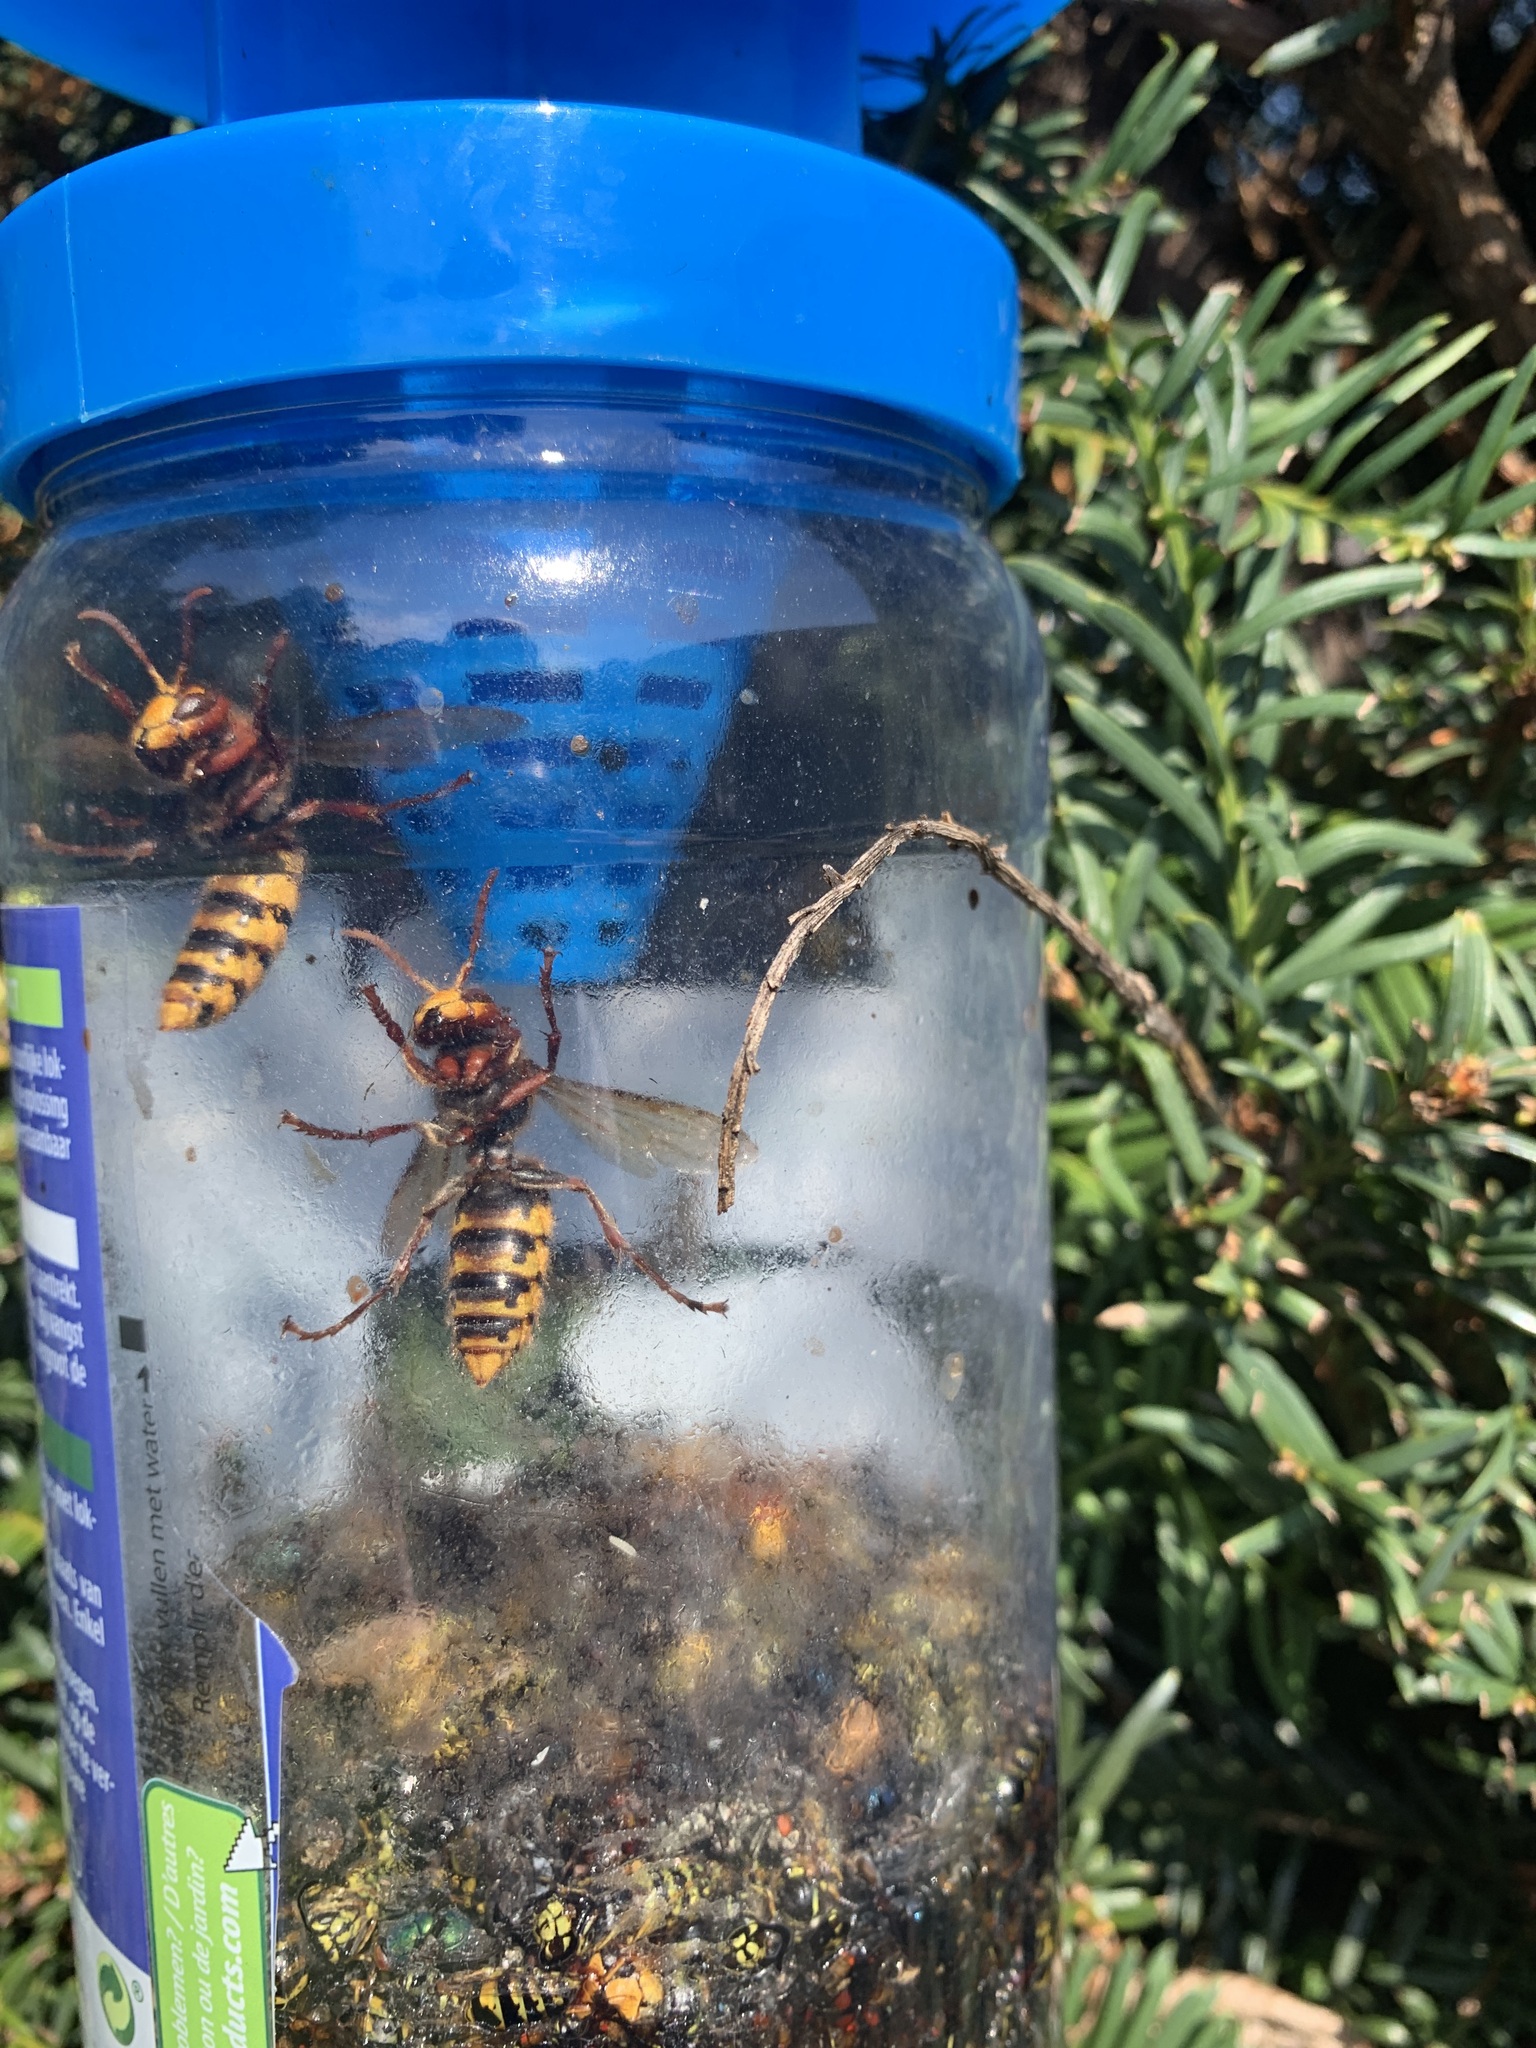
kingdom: Animalia
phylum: Arthropoda
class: Insecta
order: Hymenoptera
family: Vespidae
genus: Vespa
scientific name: Vespa crabro
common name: Hornet
